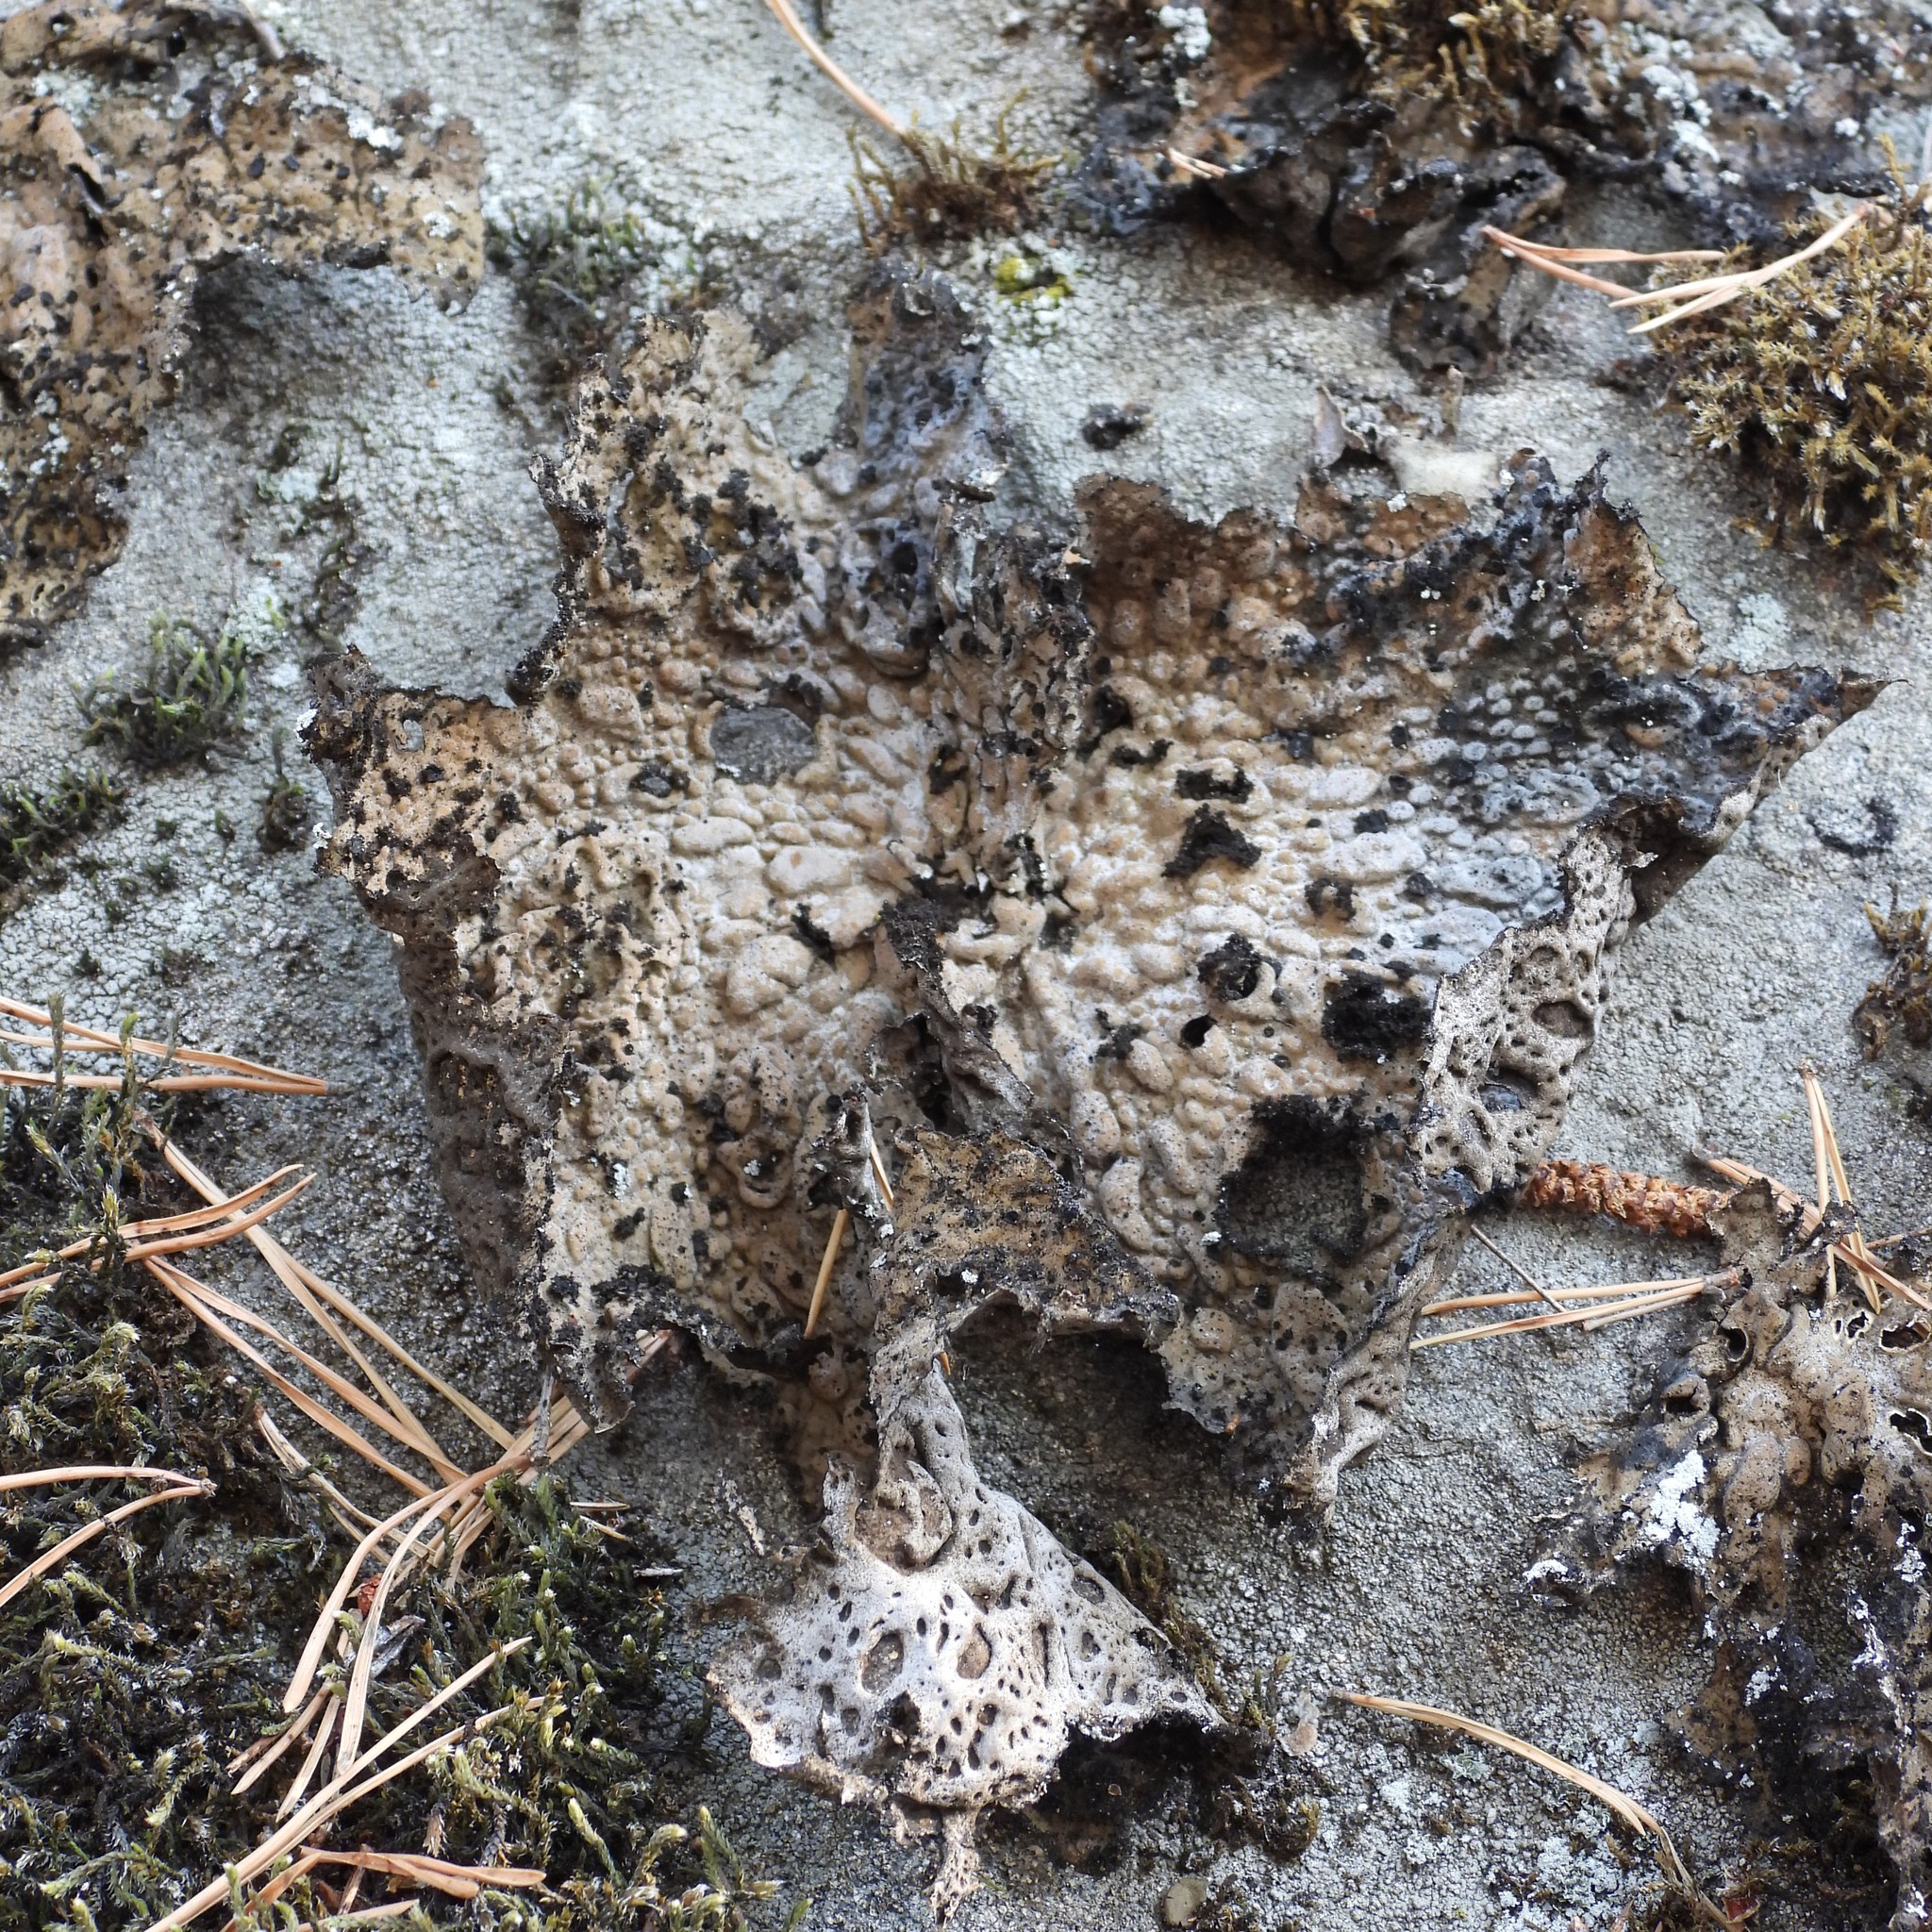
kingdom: Fungi
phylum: Ascomycota
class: Lecanoromycetes
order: Umbilicariales
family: Umbilicariaceae
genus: Lasallia
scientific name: Lasallia pustulata
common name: Blistered toadskin lichen
